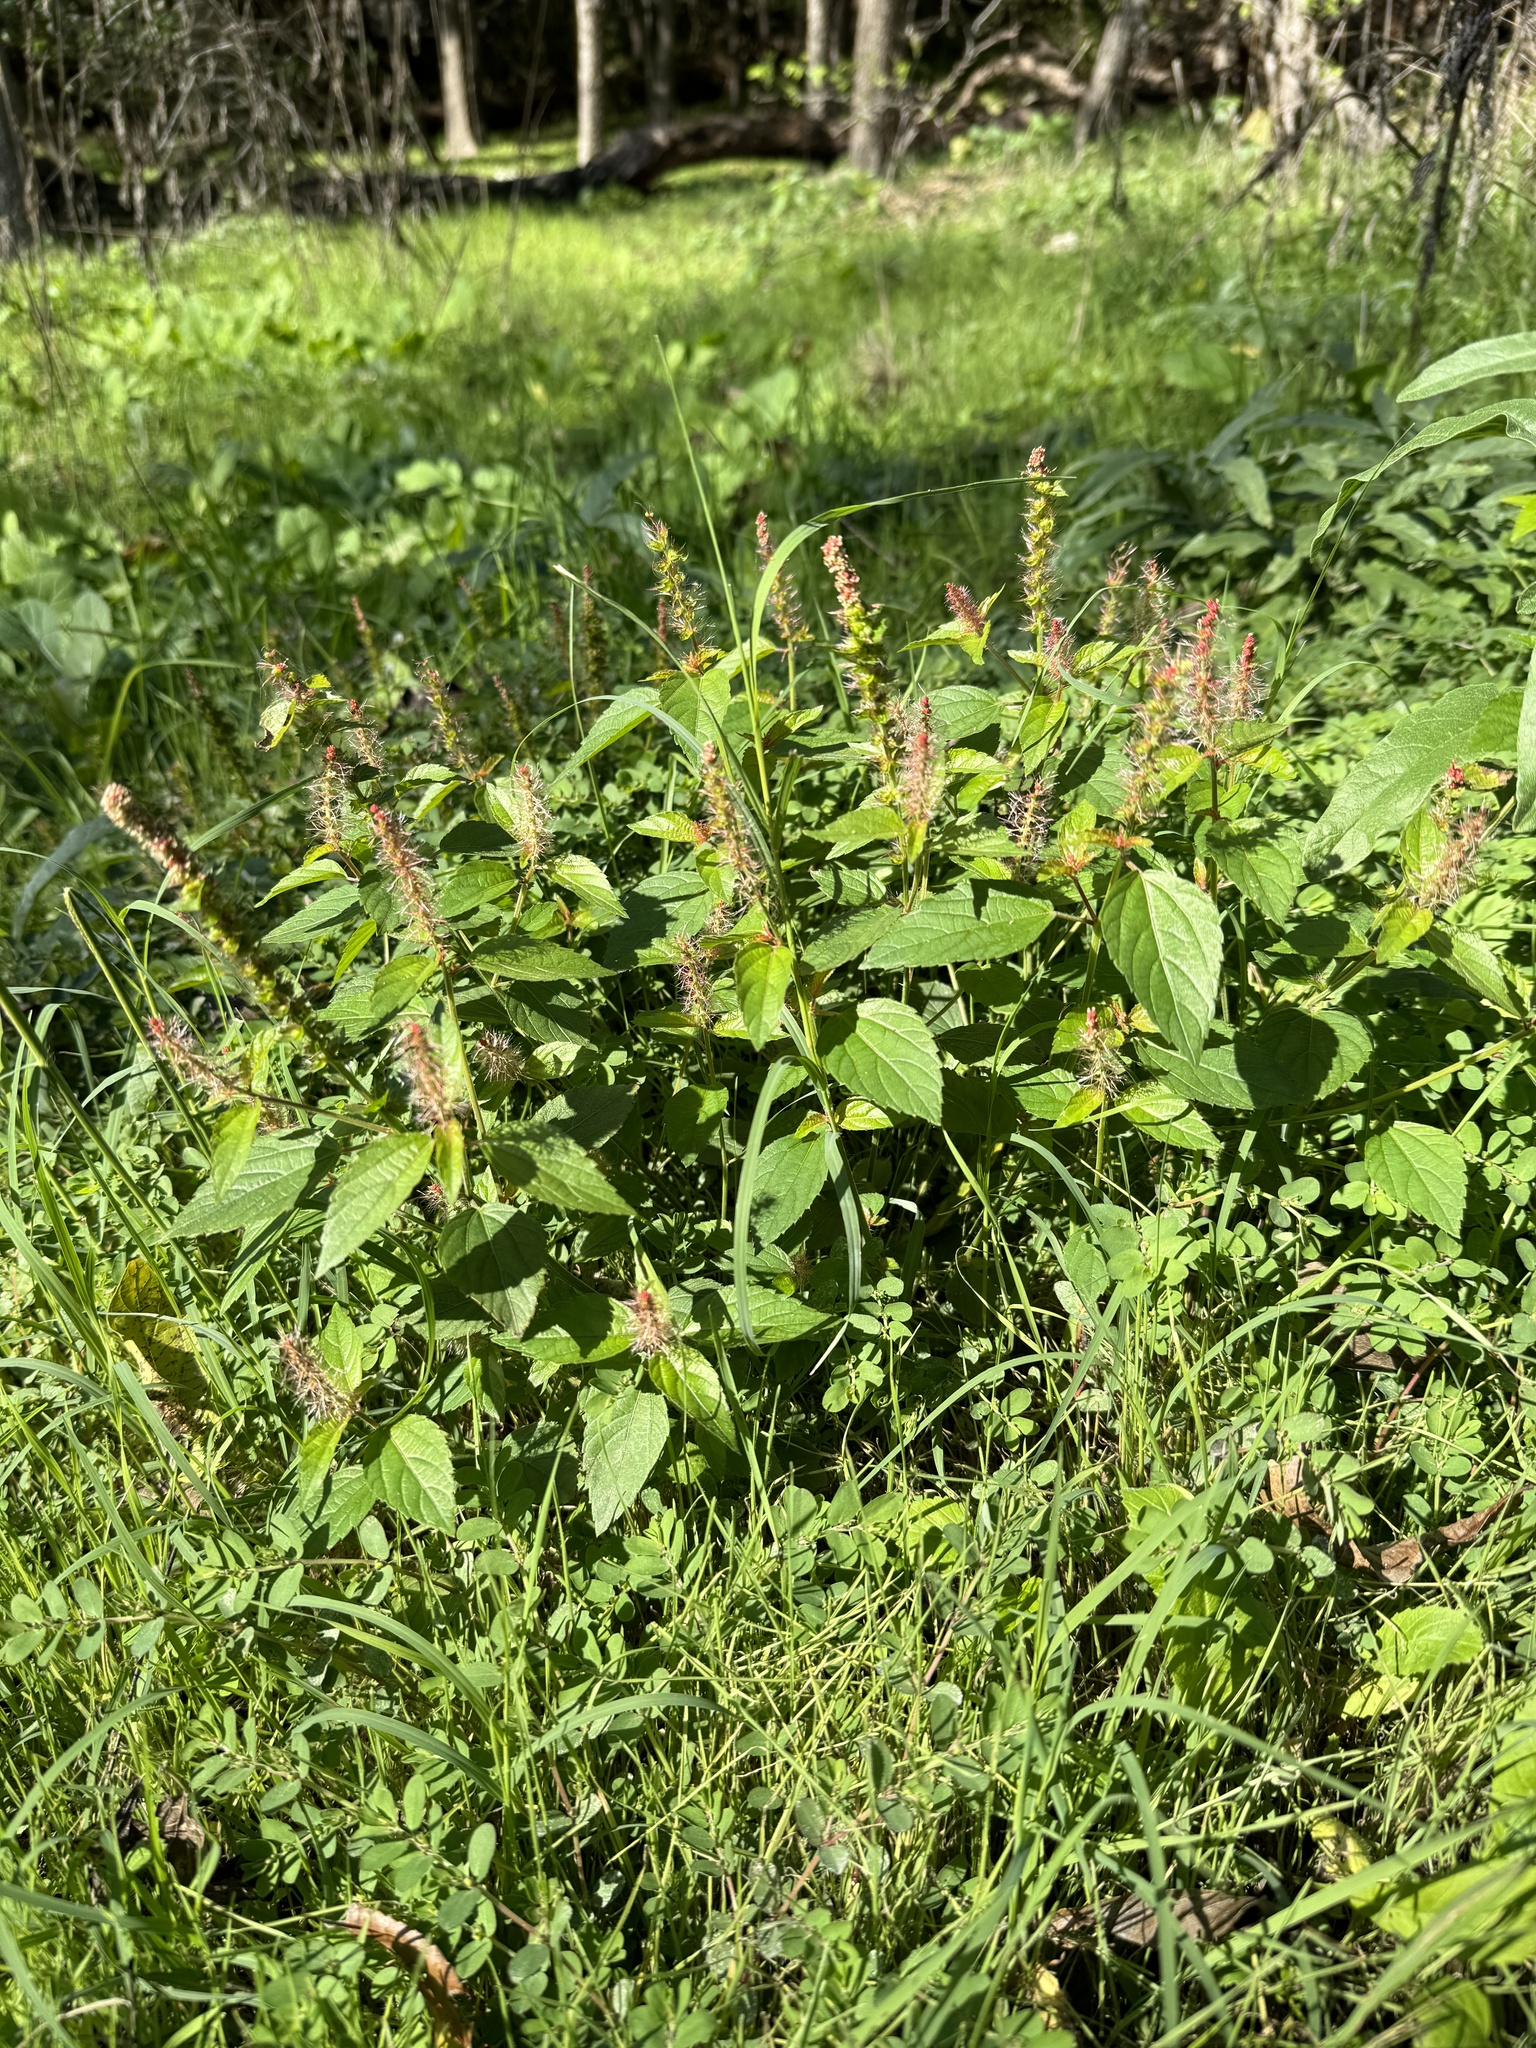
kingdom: Plantae
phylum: Tracheophyta
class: Magnoliopsida
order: Malpighiales
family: Euphorbiaceae
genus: Acalypha
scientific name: Acalypha phleoides
